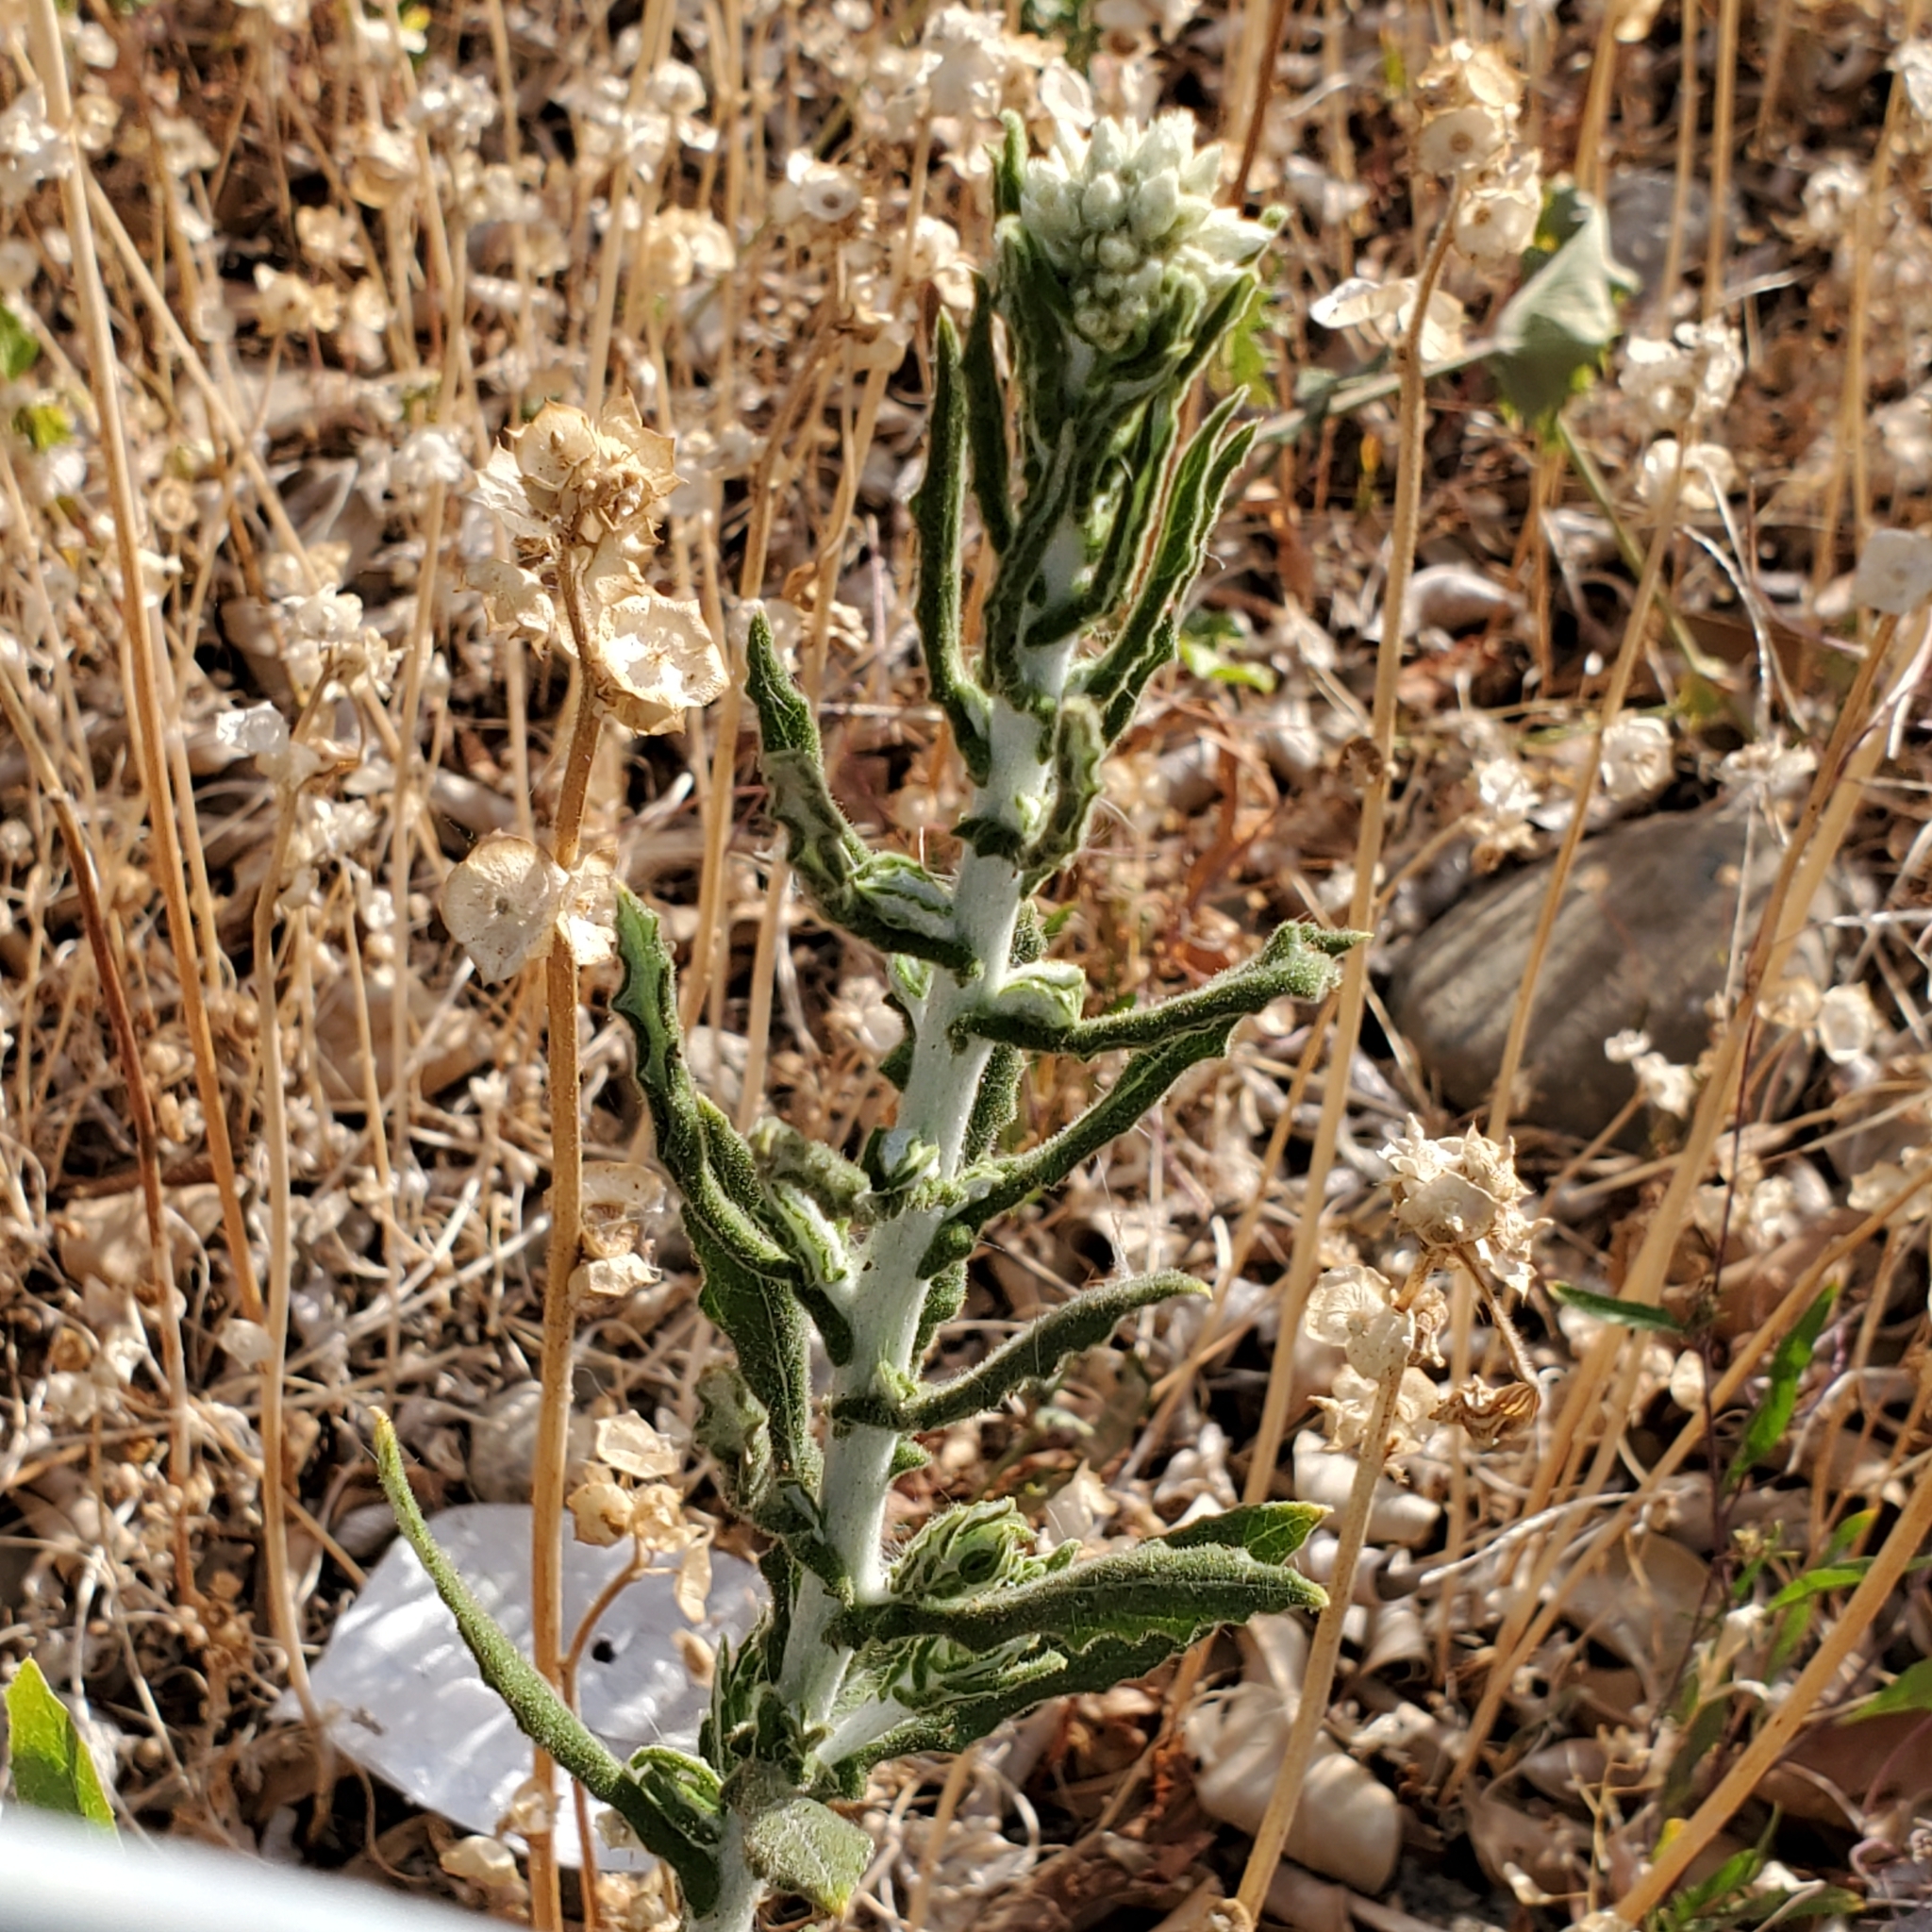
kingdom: Plantae
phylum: Tracheophyta
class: Magnoliopsida
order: Asterales
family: Asteraceae
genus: Pseudognaphalium
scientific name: Pseudognaphalium biolettii
